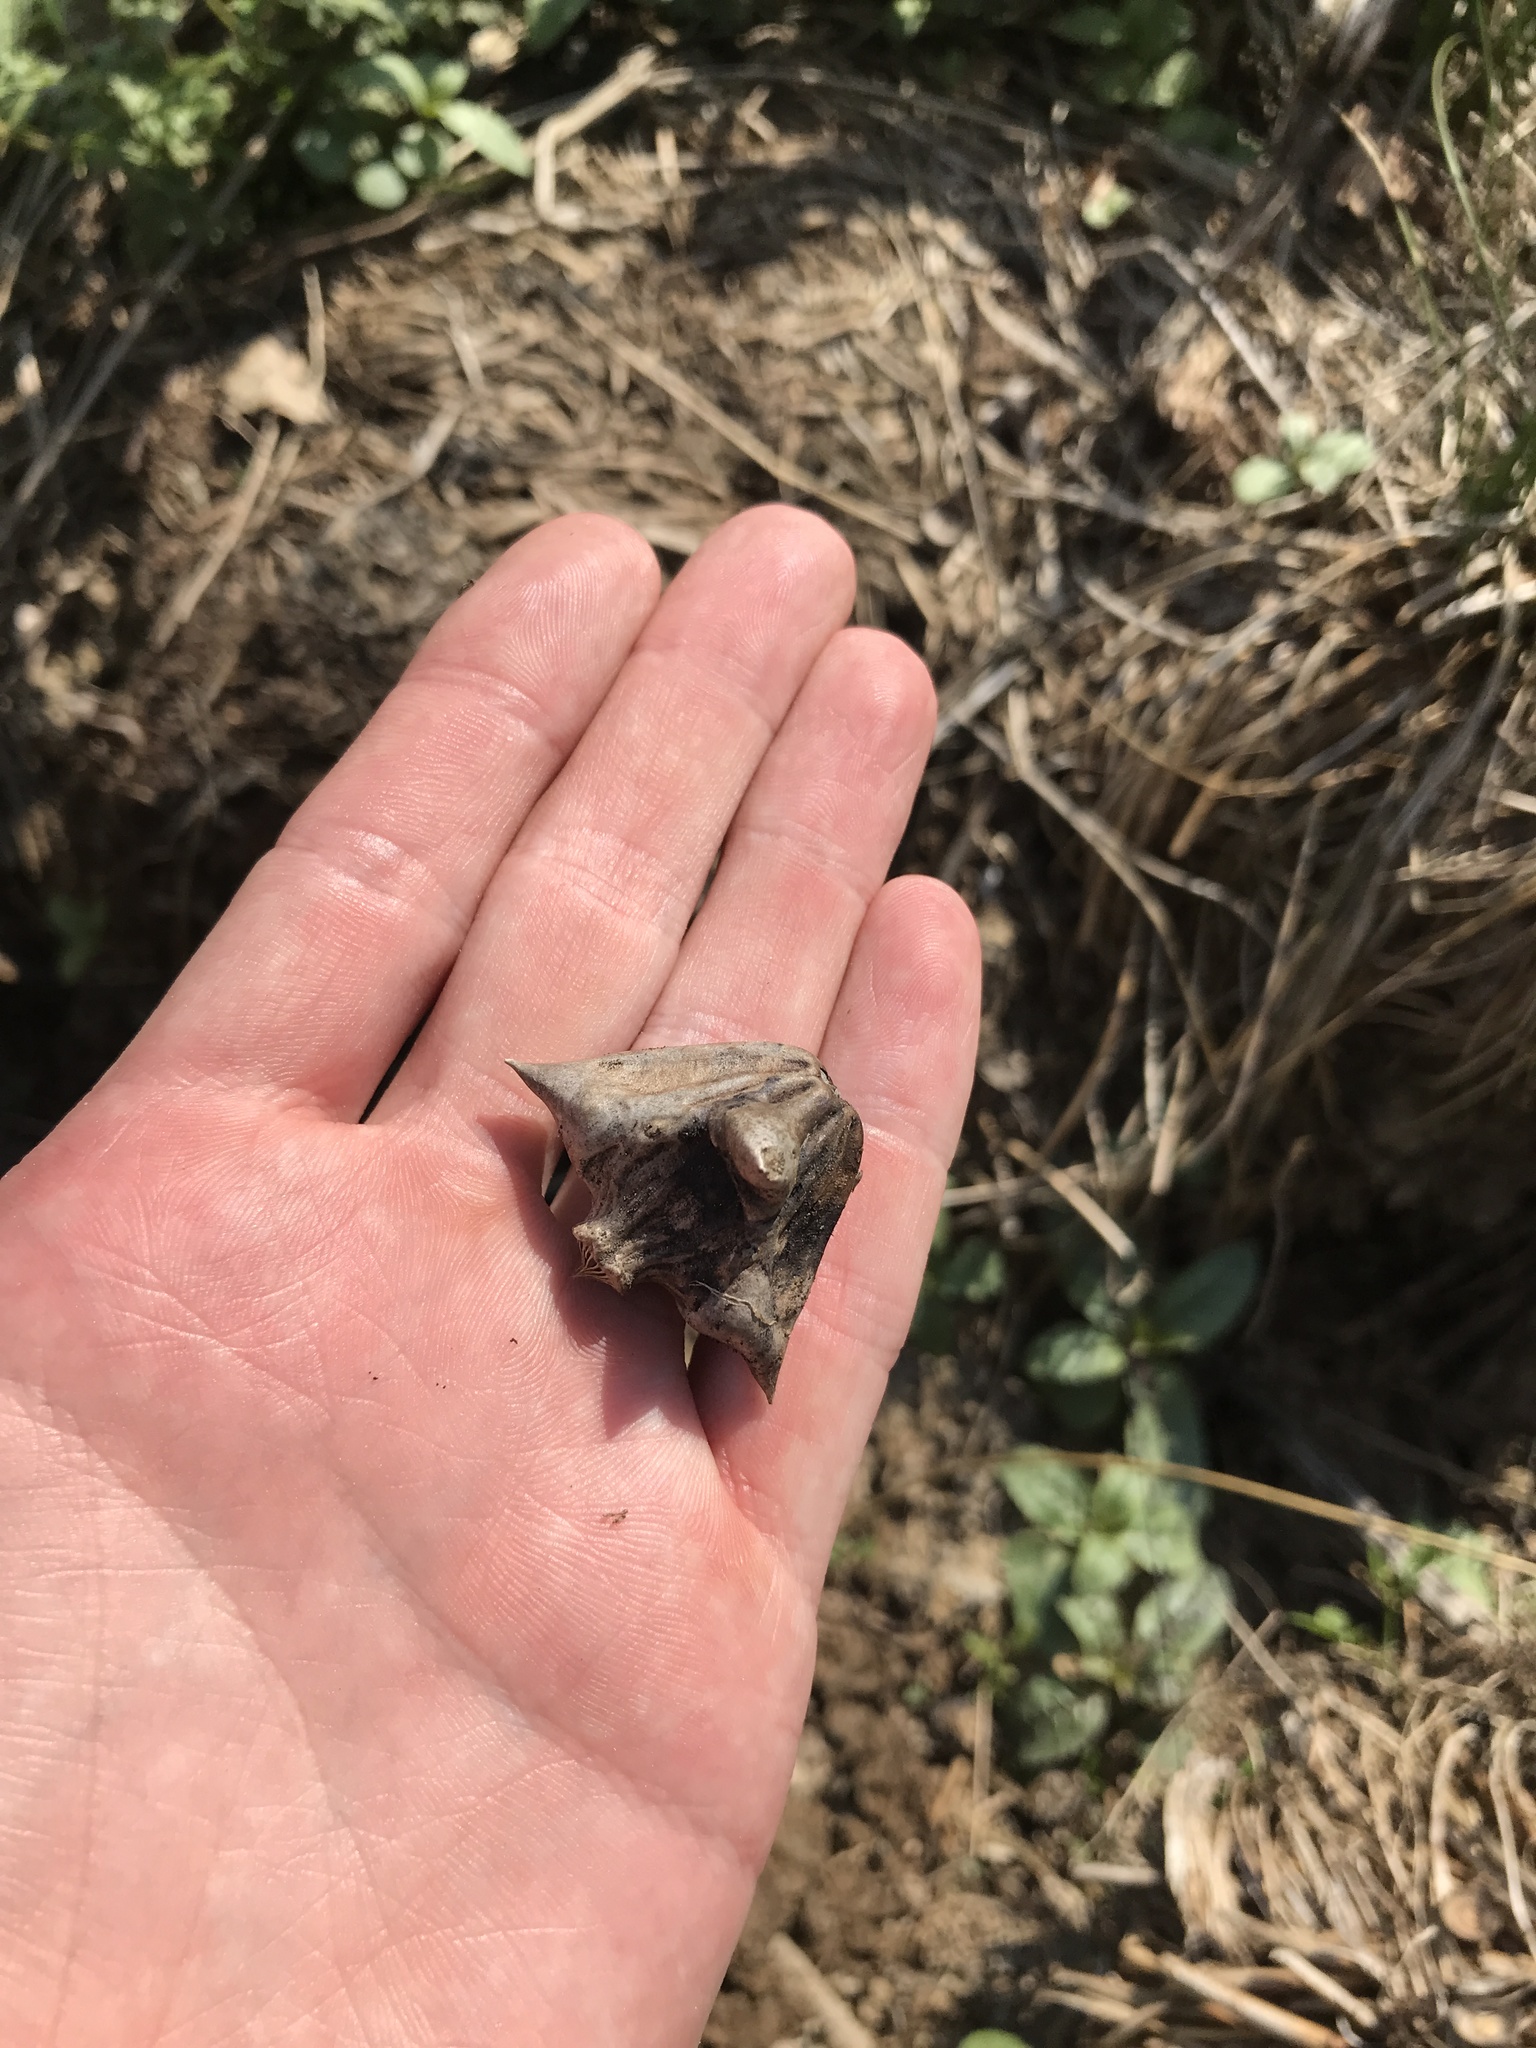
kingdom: Plantae
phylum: Tracheophyta
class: Magnoliopsida
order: Myrtales
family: Lythraceae
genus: Trapa
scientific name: Trapa natans
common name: Water chestnut
